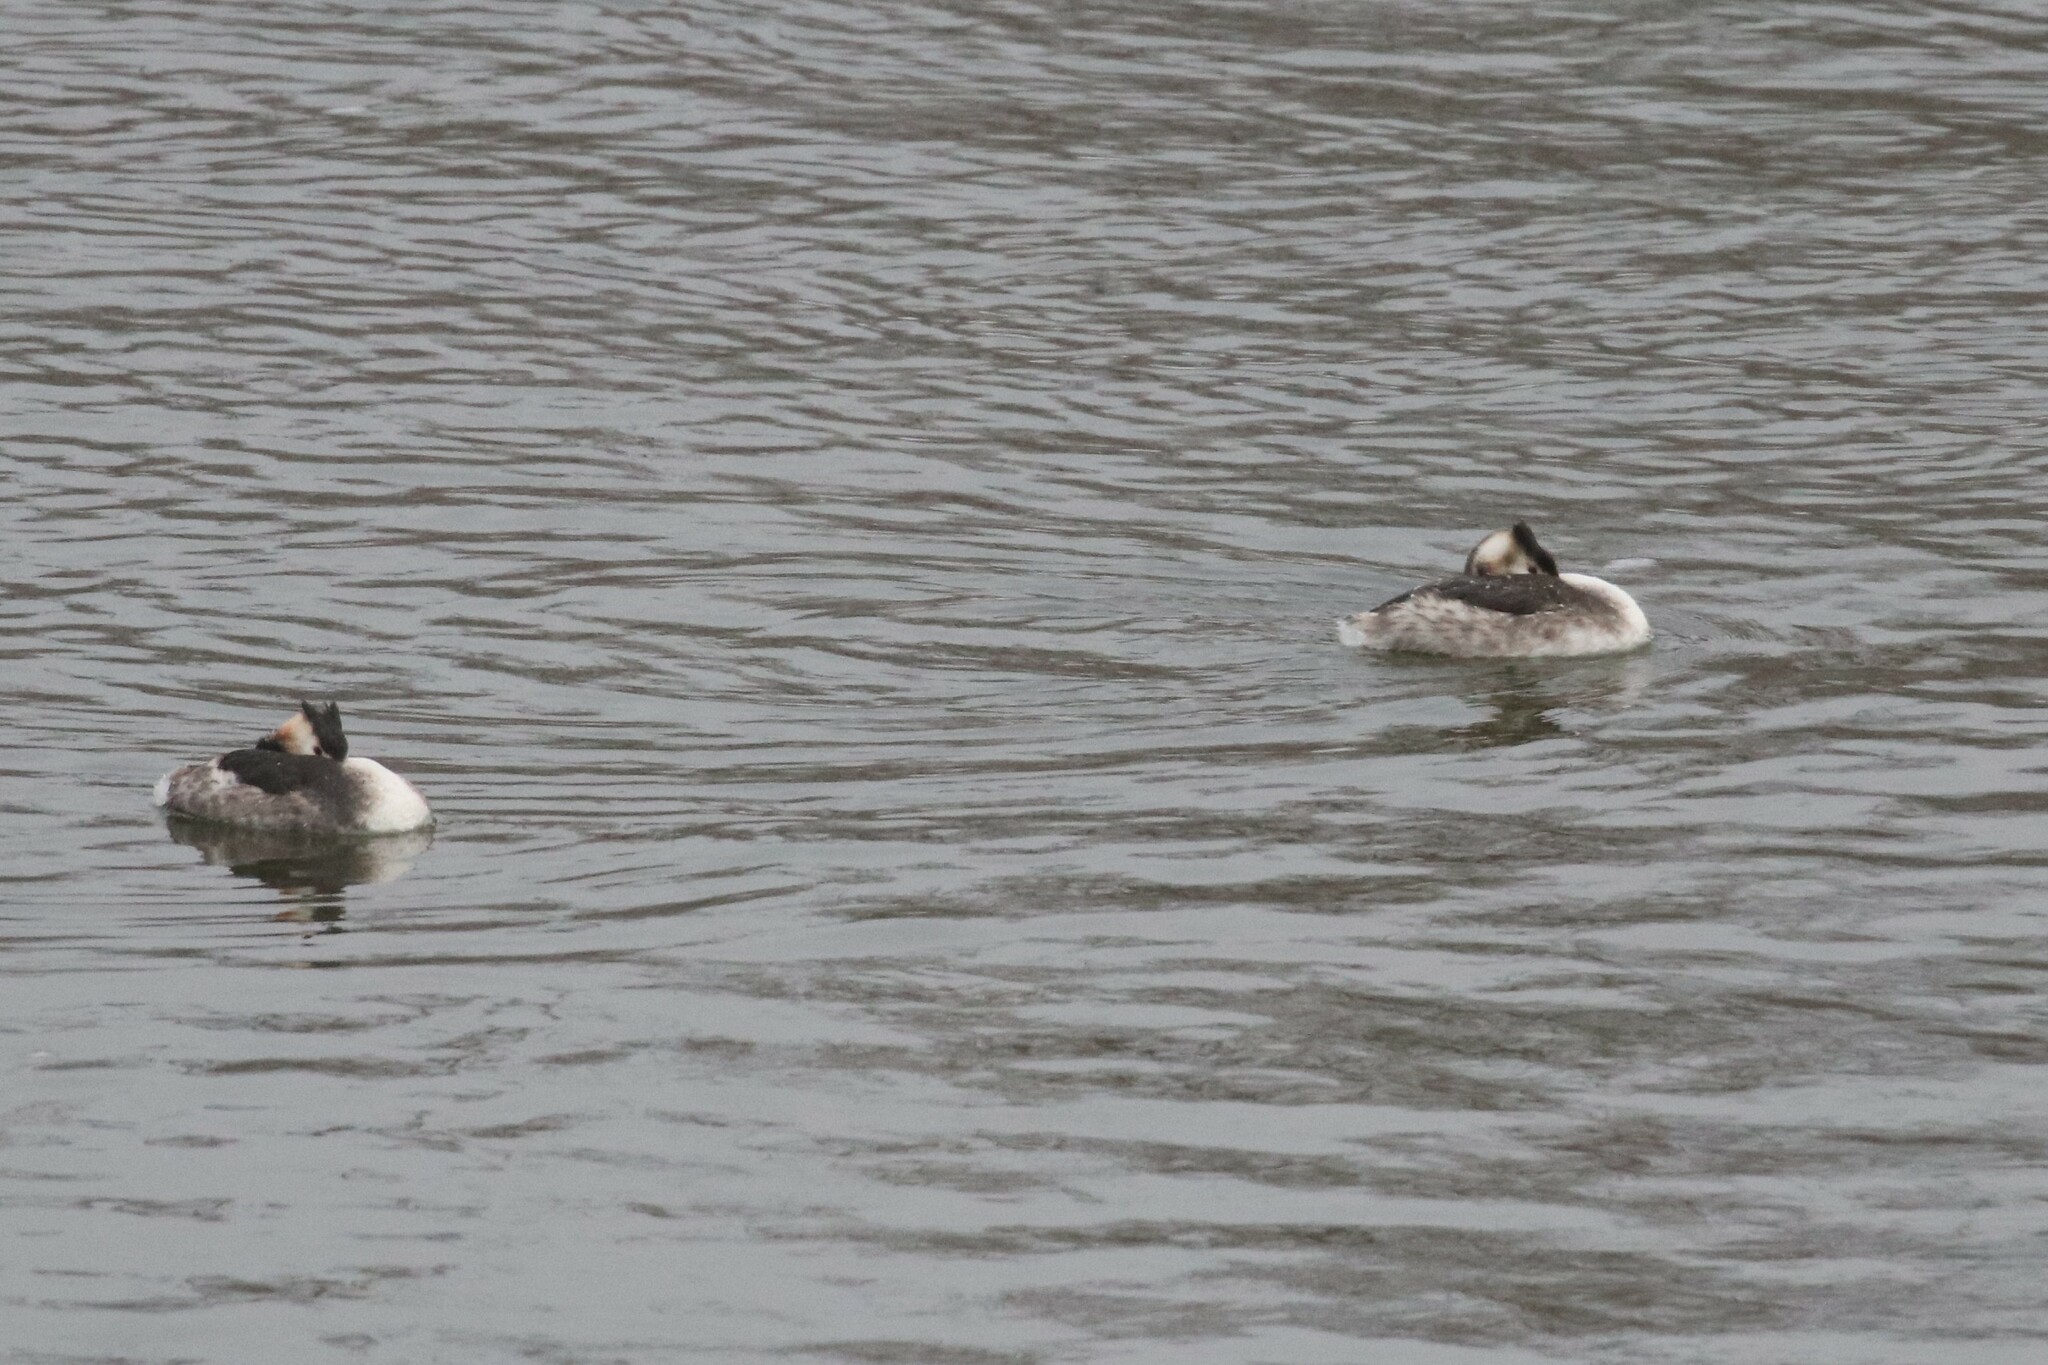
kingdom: Animalia
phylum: Chordata
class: Aves
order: Podicipediformes
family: Podicipedidae
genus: Podiceps
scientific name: Podiceps cristatus
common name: Great crested grebe
